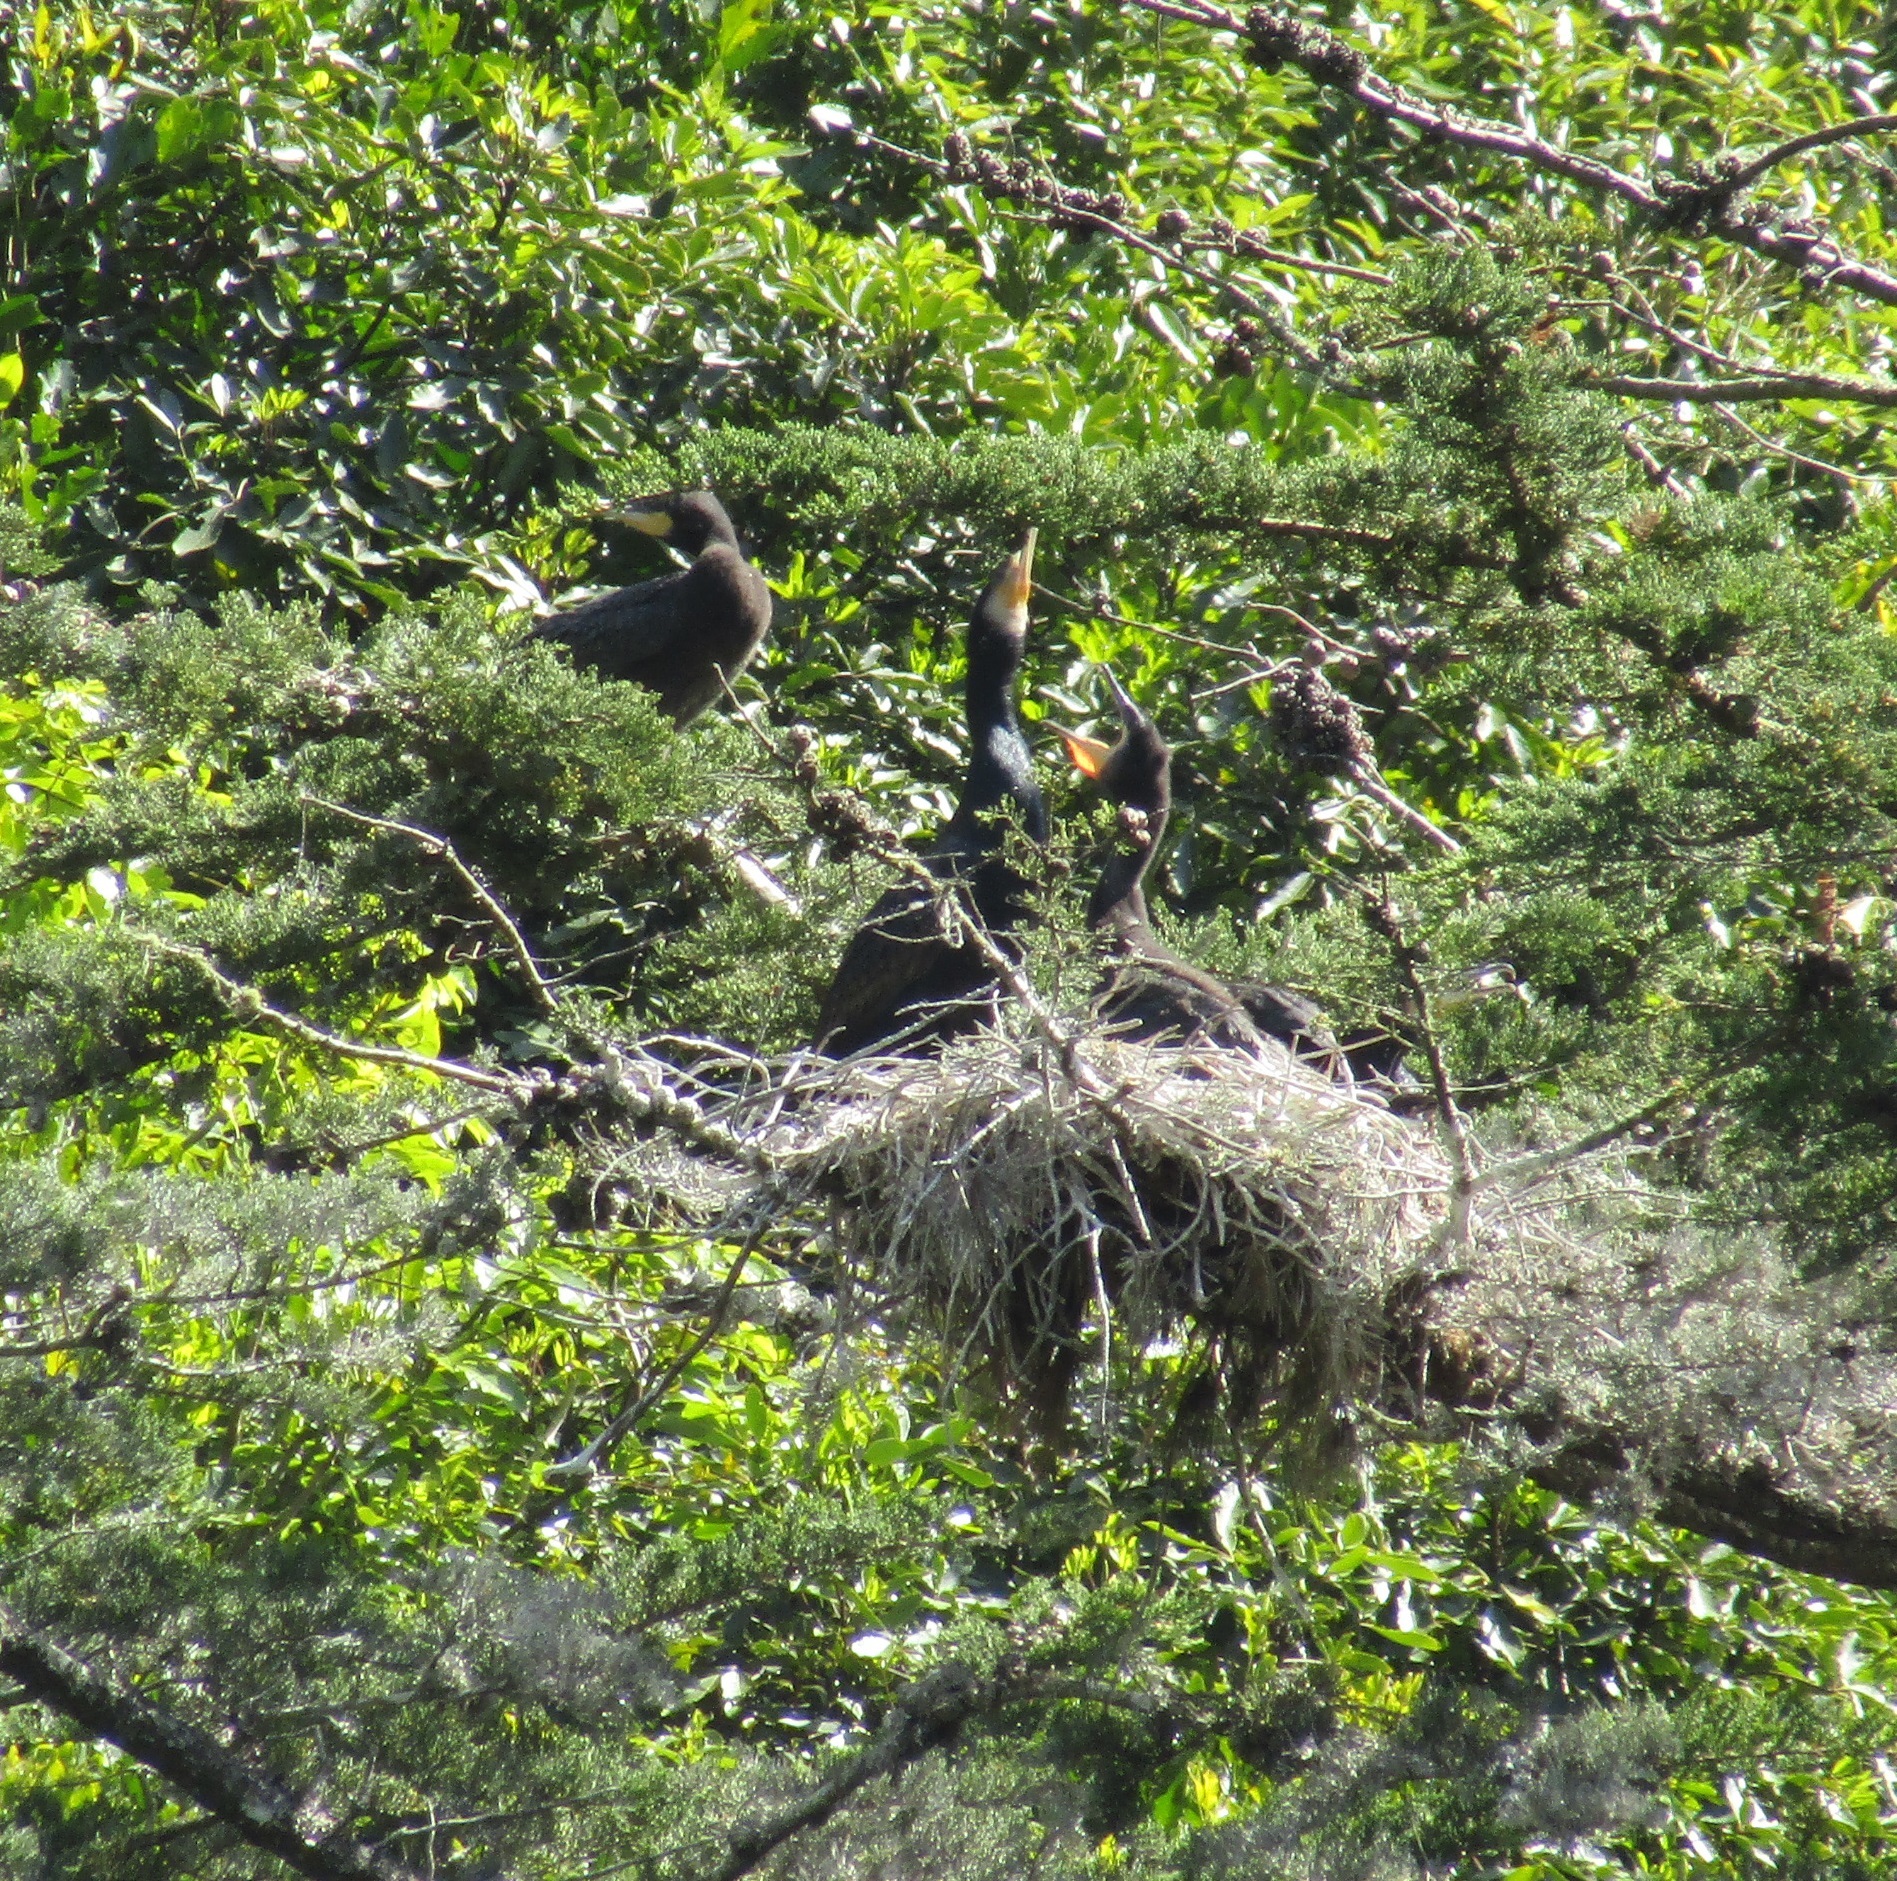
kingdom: Animalia
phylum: Chordata
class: Aves
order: Suliformes
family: Phalacrocoracidae
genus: Phalacrocorax
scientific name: Phalacrocorax carbo
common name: Great cormorant
